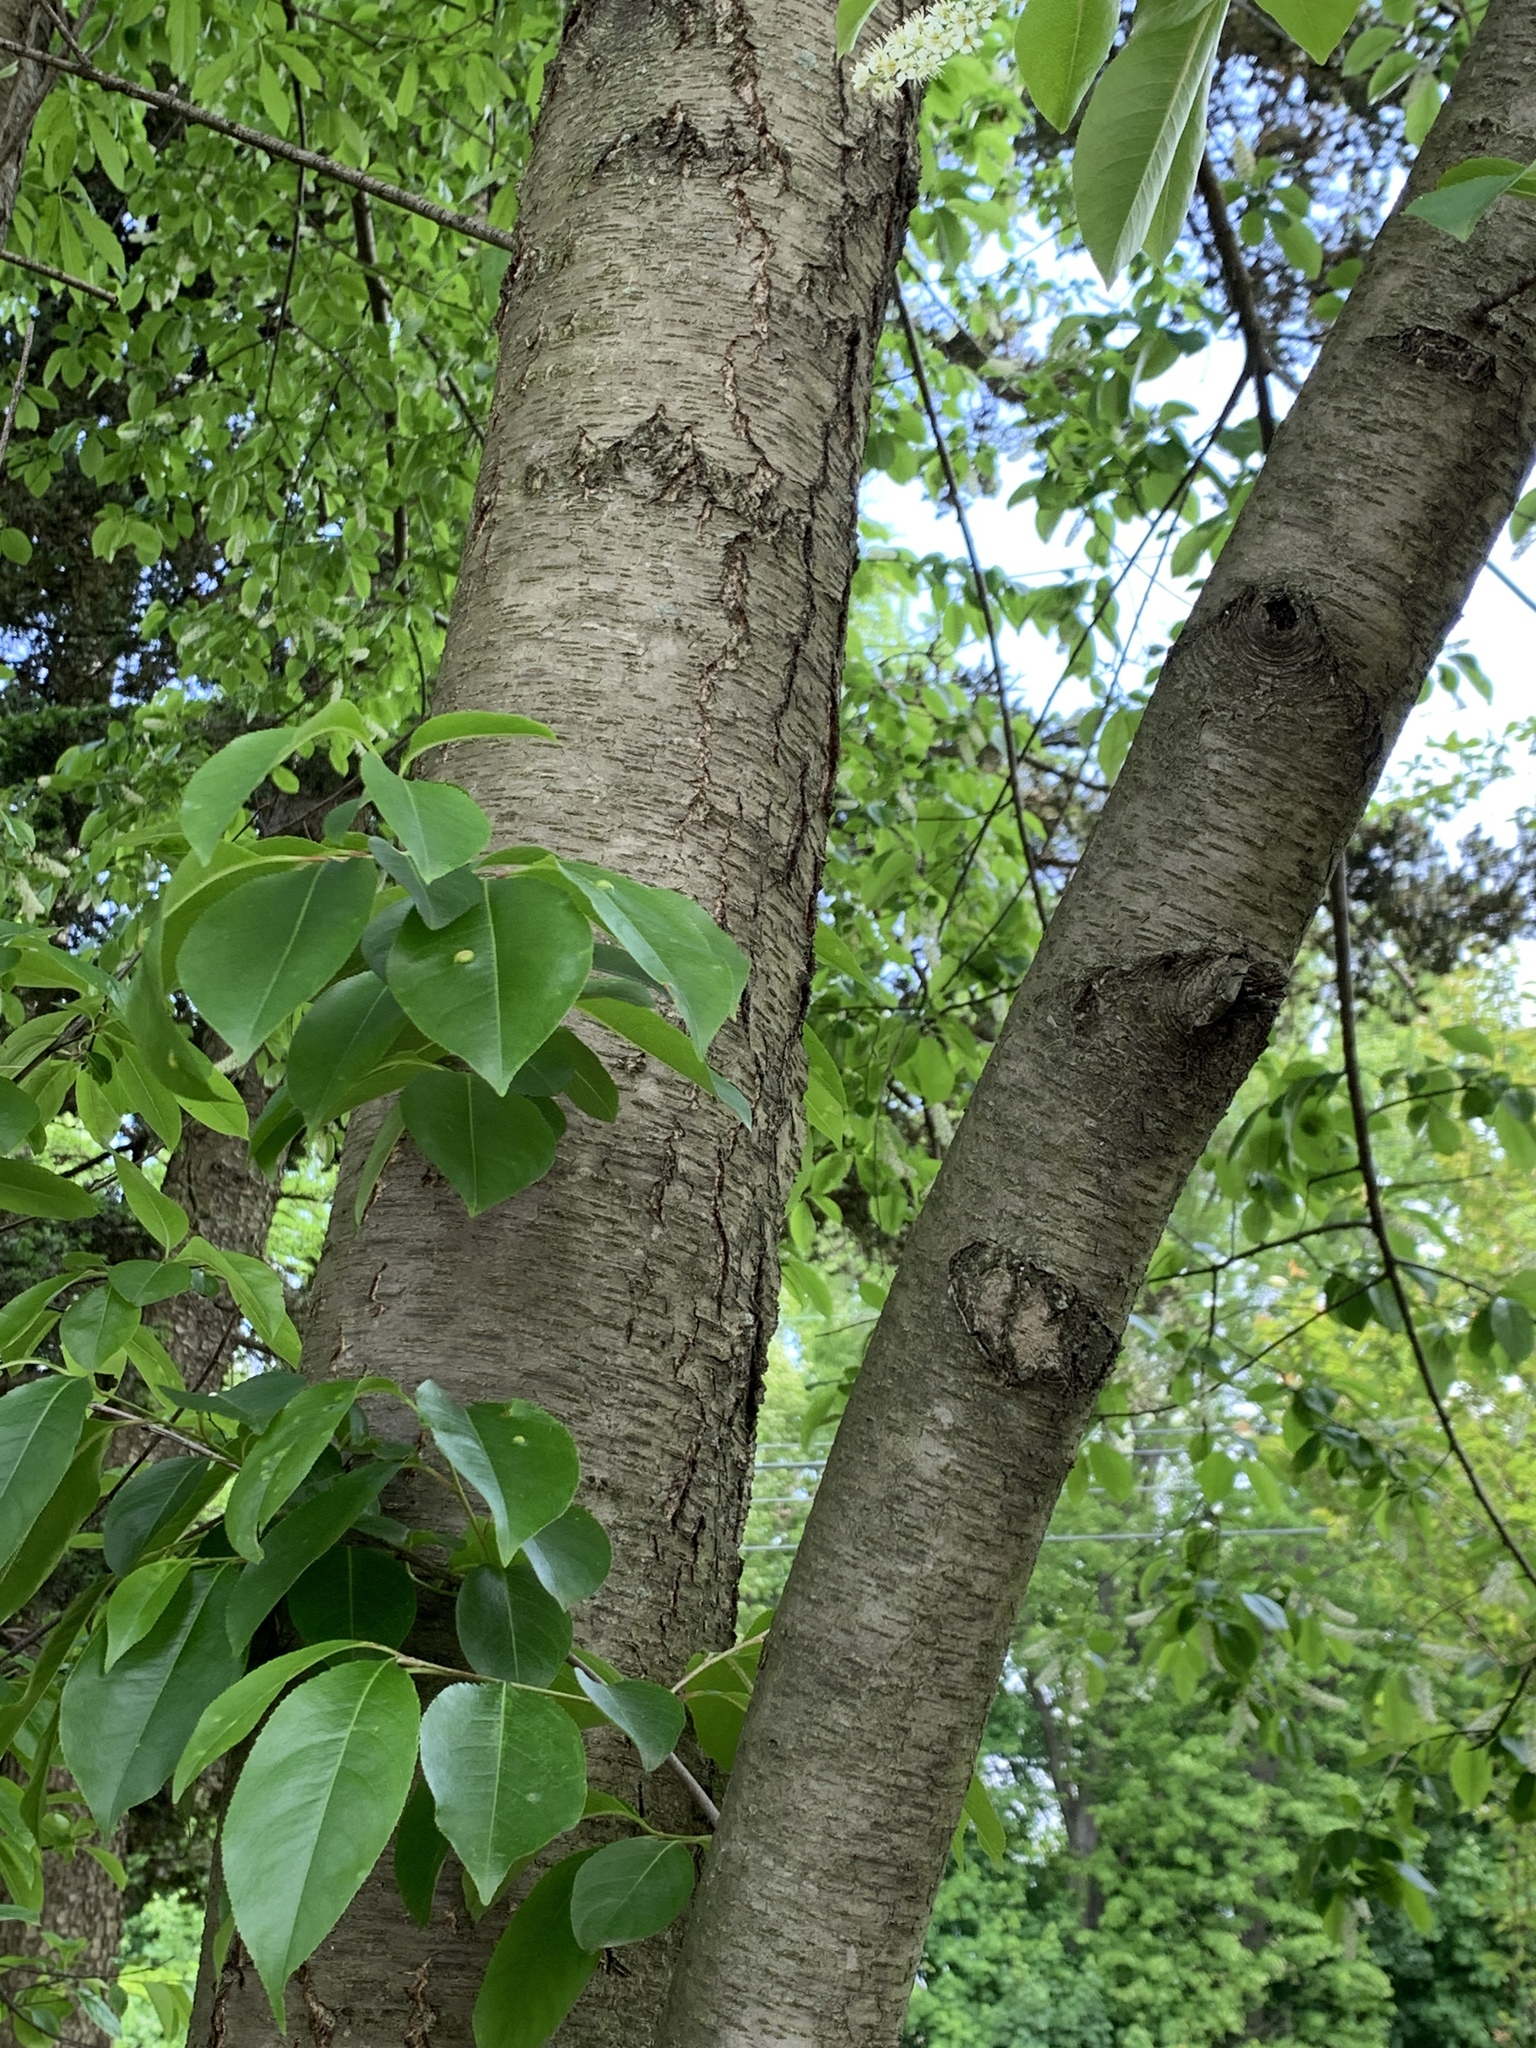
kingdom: Plantae
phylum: Tracheophyta
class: Magnoliopsida
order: Rosales
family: Rosaceae
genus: Prunus
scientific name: Prunus padus
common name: Bird cherry
